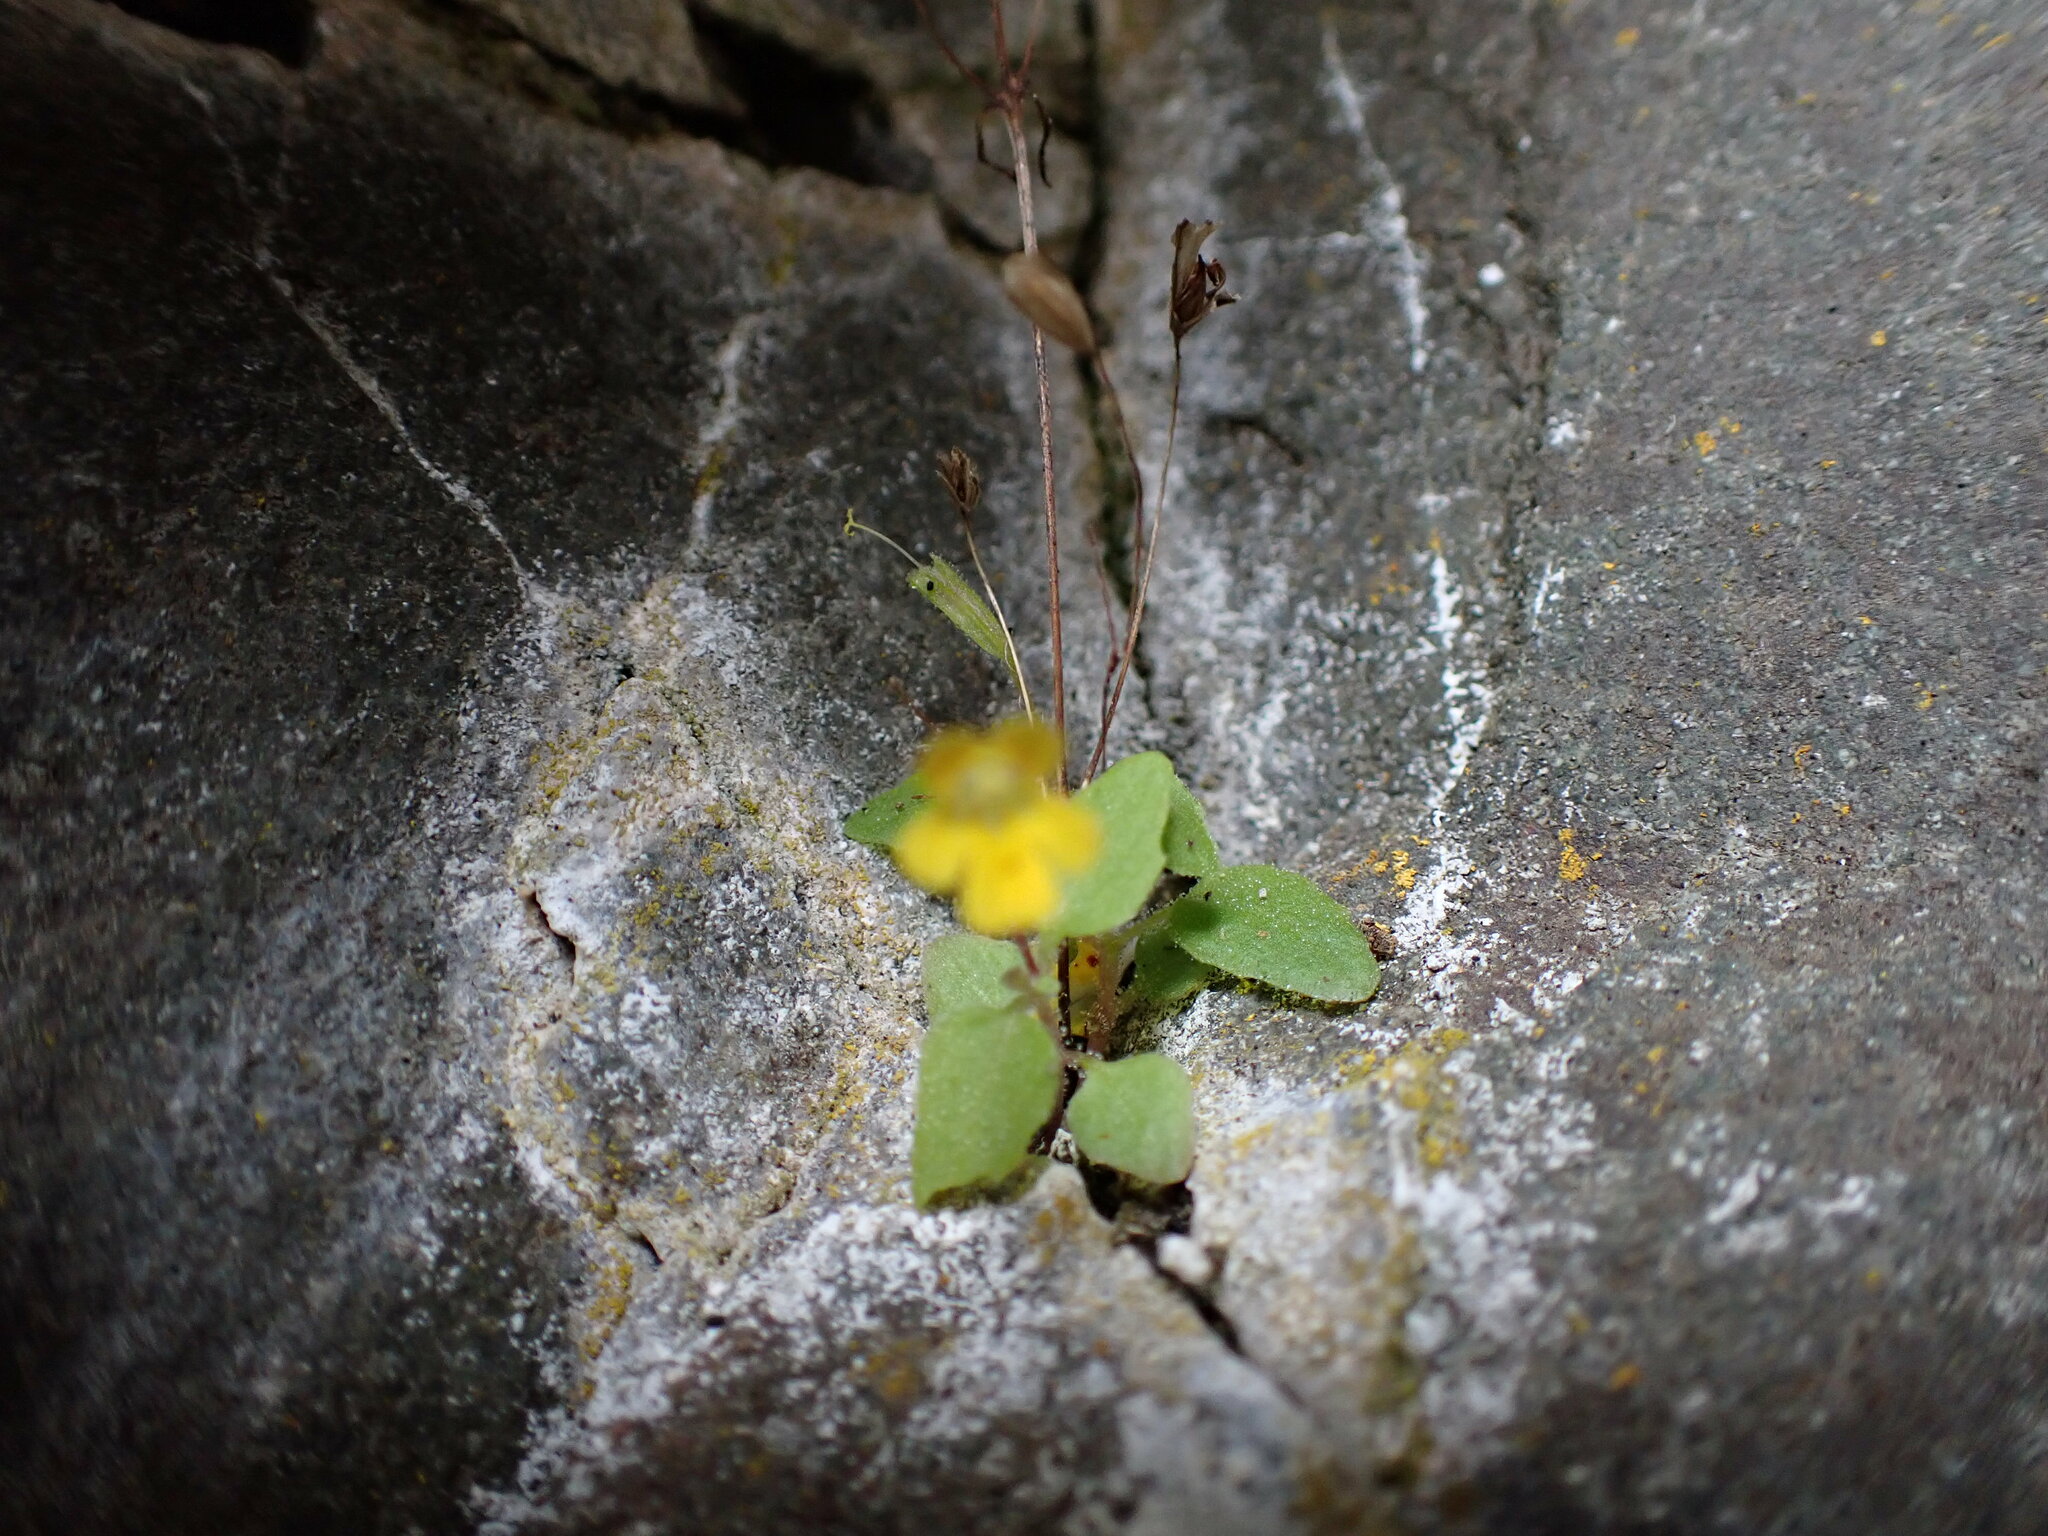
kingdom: Plantae
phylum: Tracheophyta
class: Magnoliopsida
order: Lamiales
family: Phrymaceae
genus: Erythranthe
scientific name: Erythranthe alsinoides
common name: Chickweed monkeyflower
